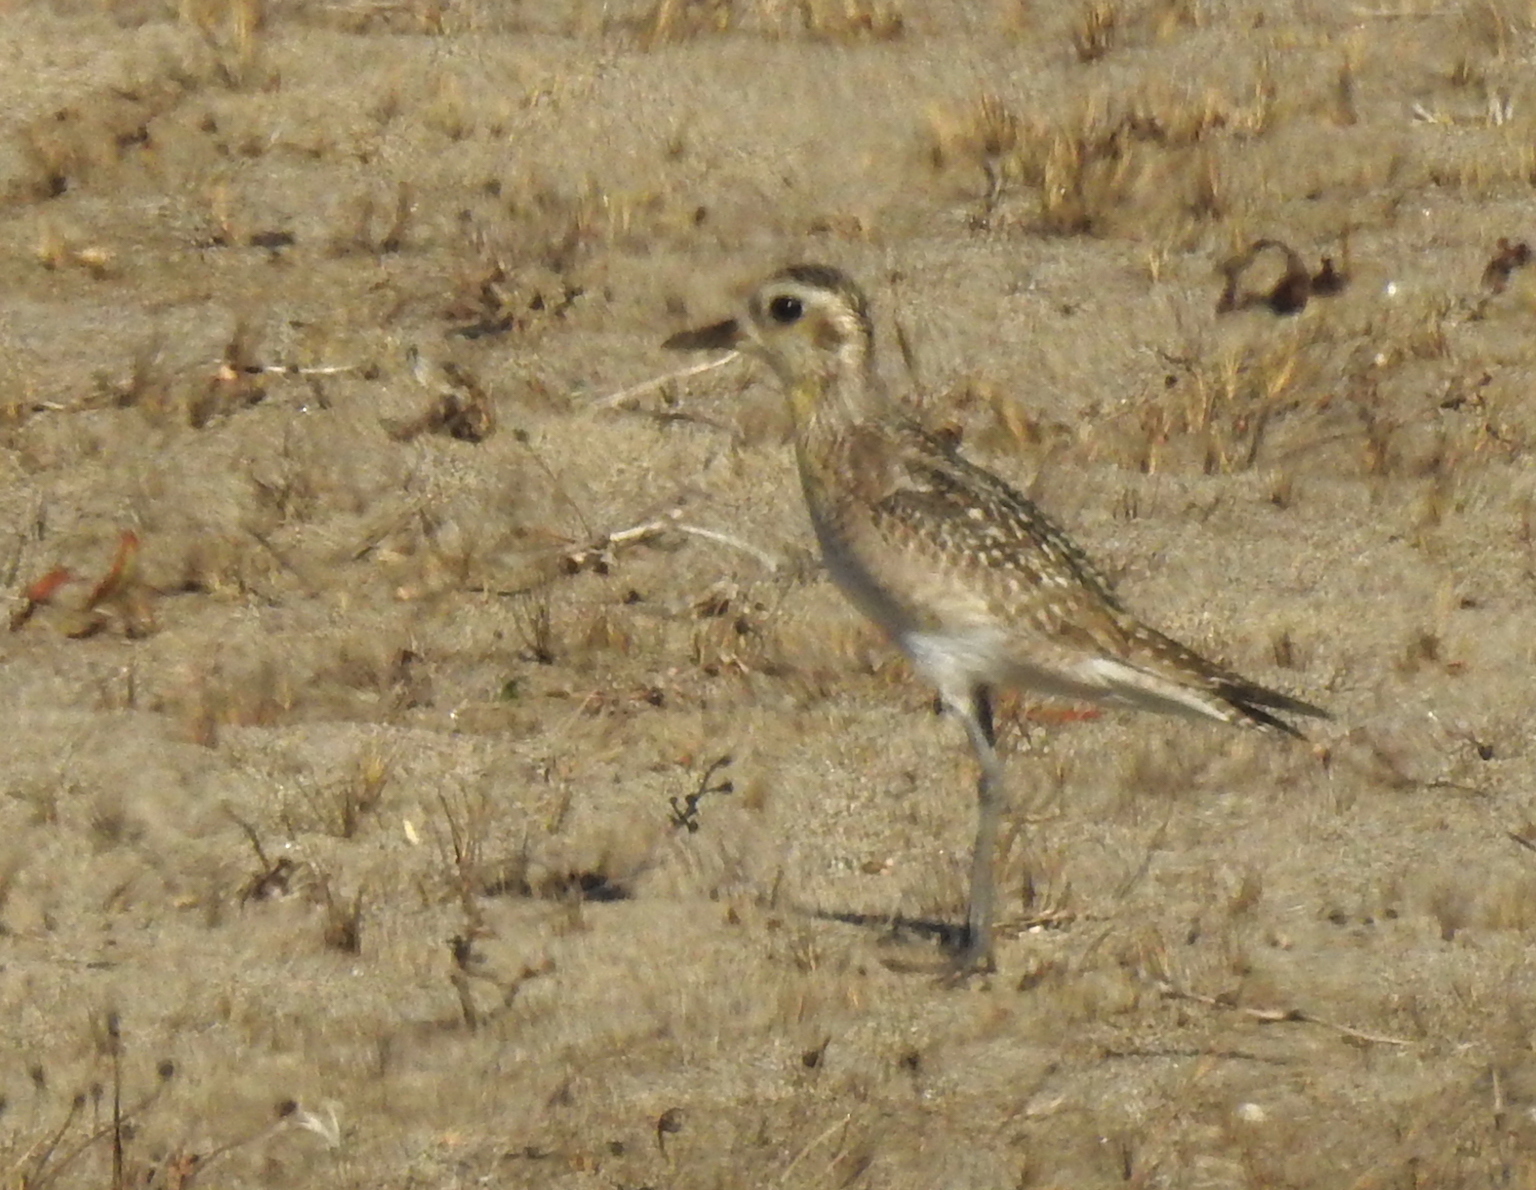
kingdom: Animalia
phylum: Chordata
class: Aves
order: Charadriiformes
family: Charadriidae
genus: Pluvialis
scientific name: Pluvialis fulva
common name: Pacific golden plover
